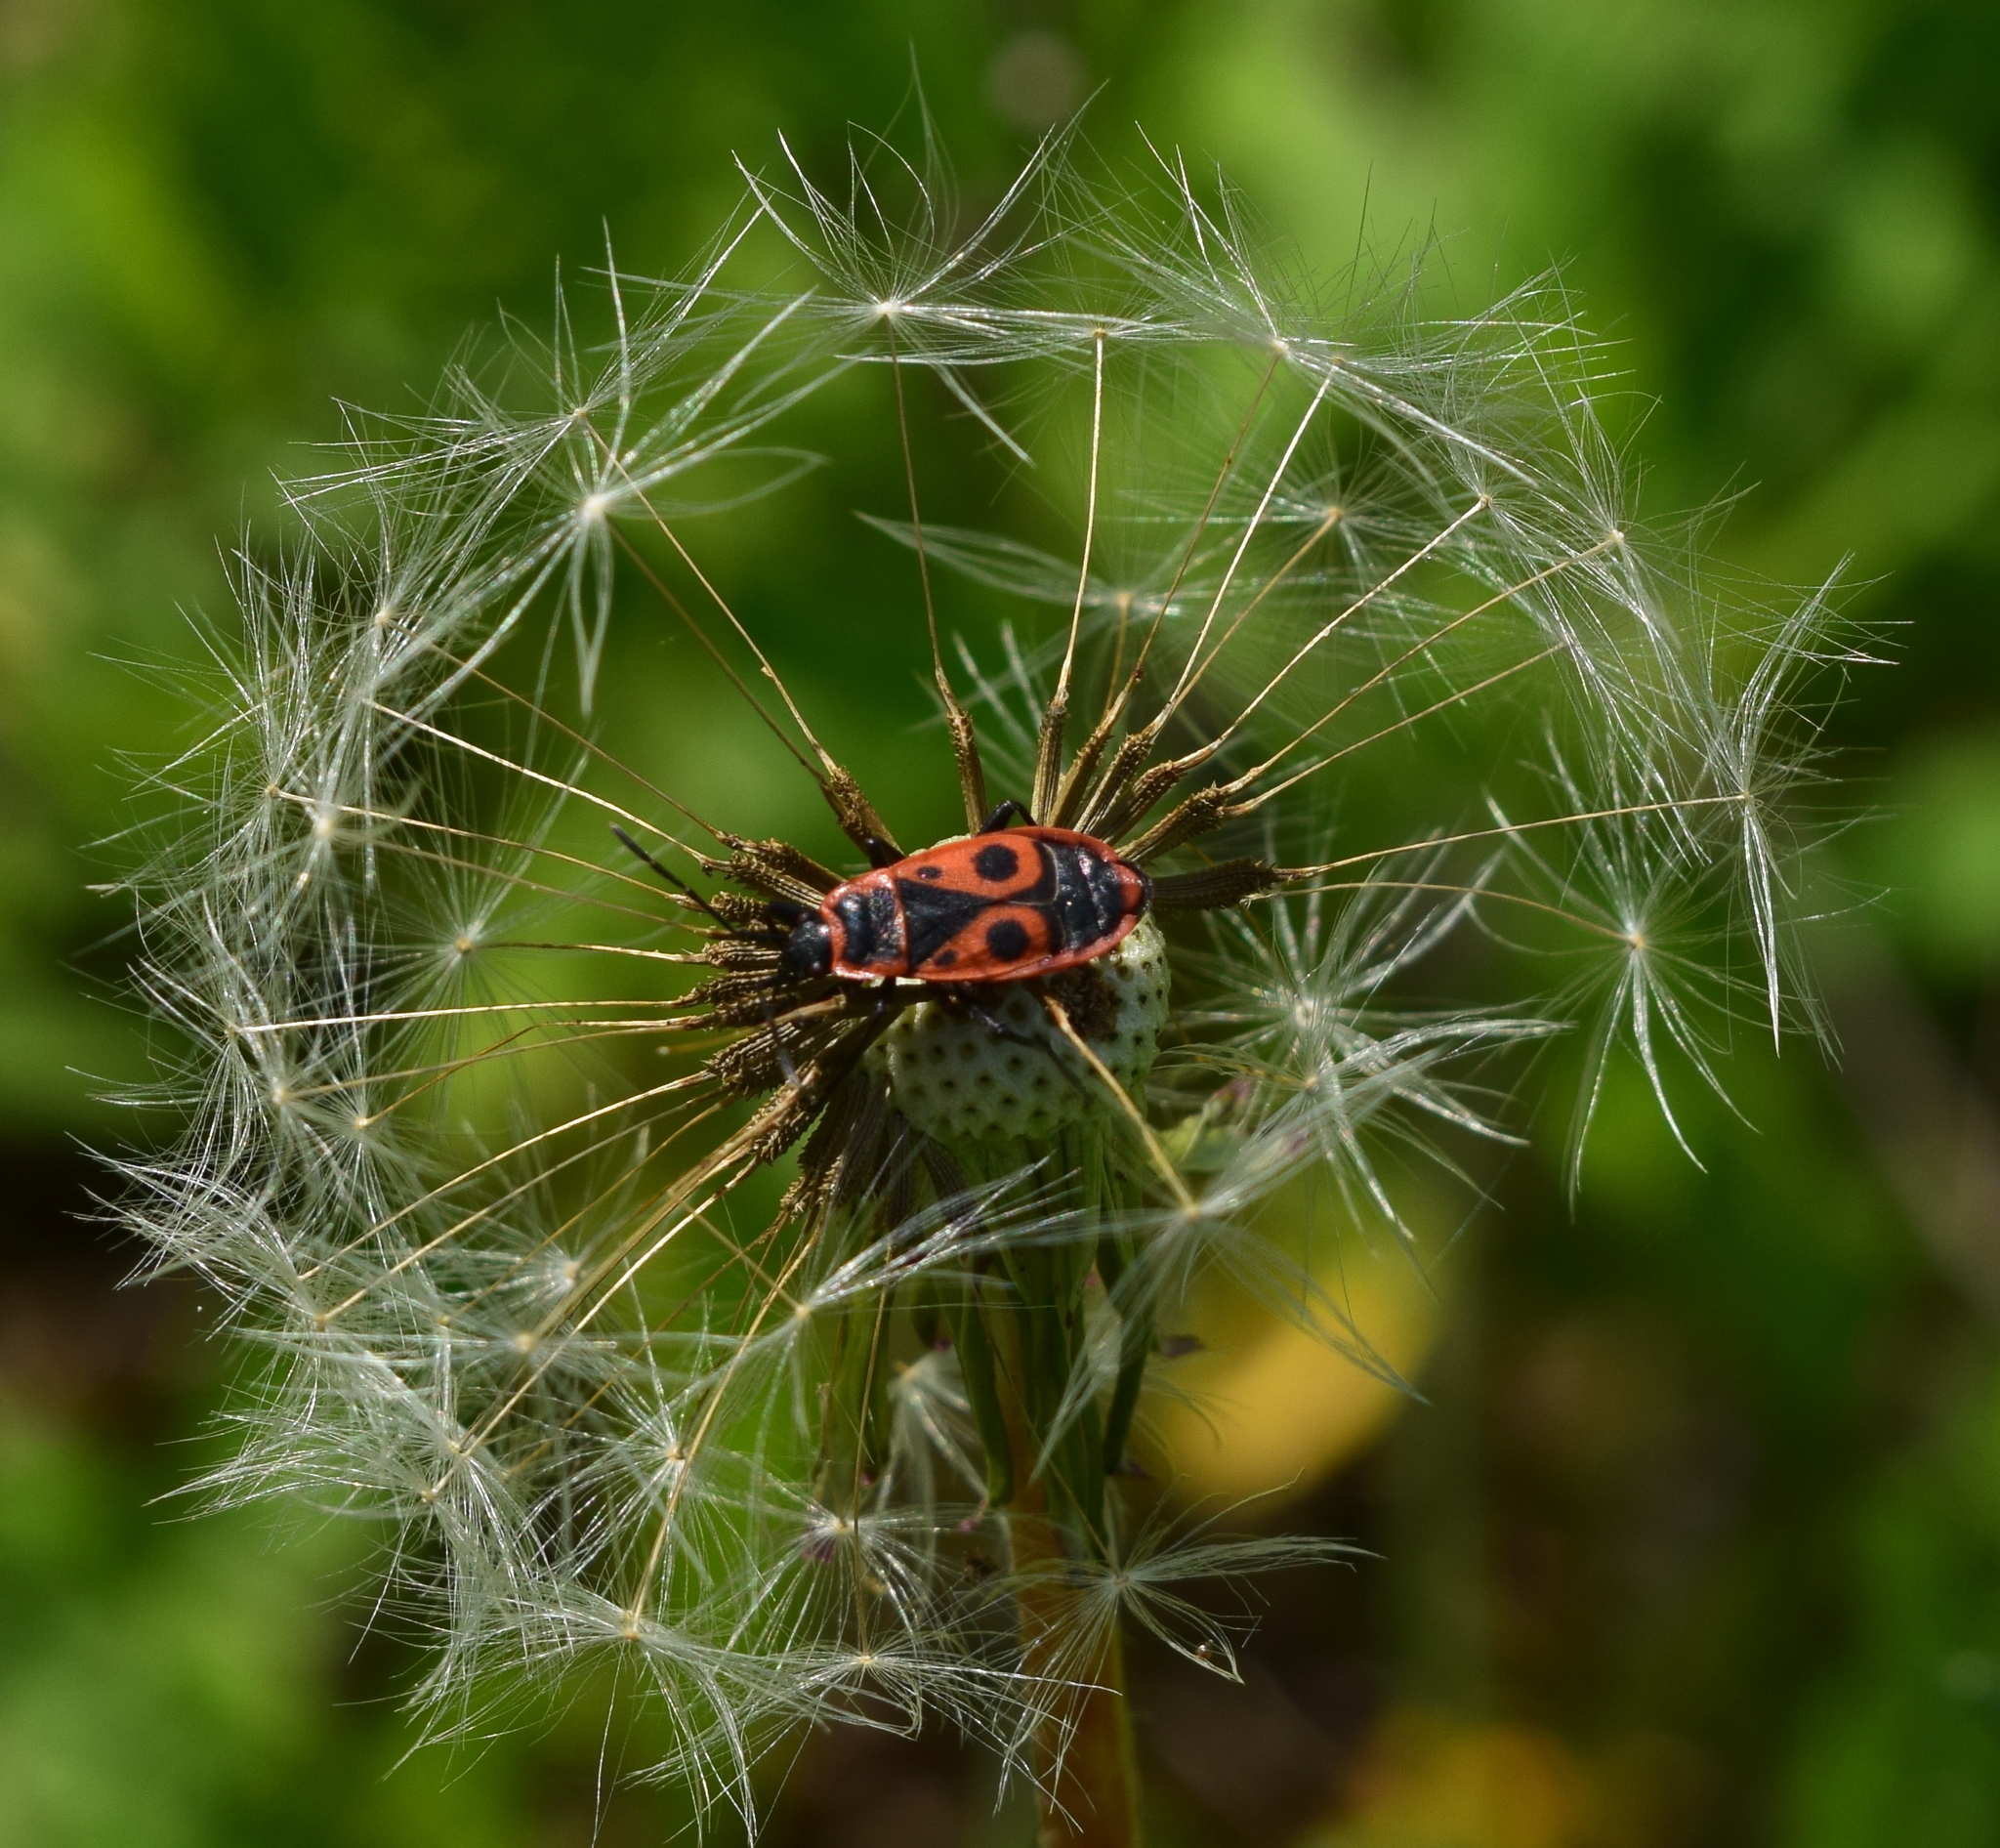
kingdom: Animalia
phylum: Arthropoda
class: Insecta
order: Hemiptera
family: Pyrrhocoridae
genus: Pyrrhocoris
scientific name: Pyrrhocoris apterus
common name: Firebug
